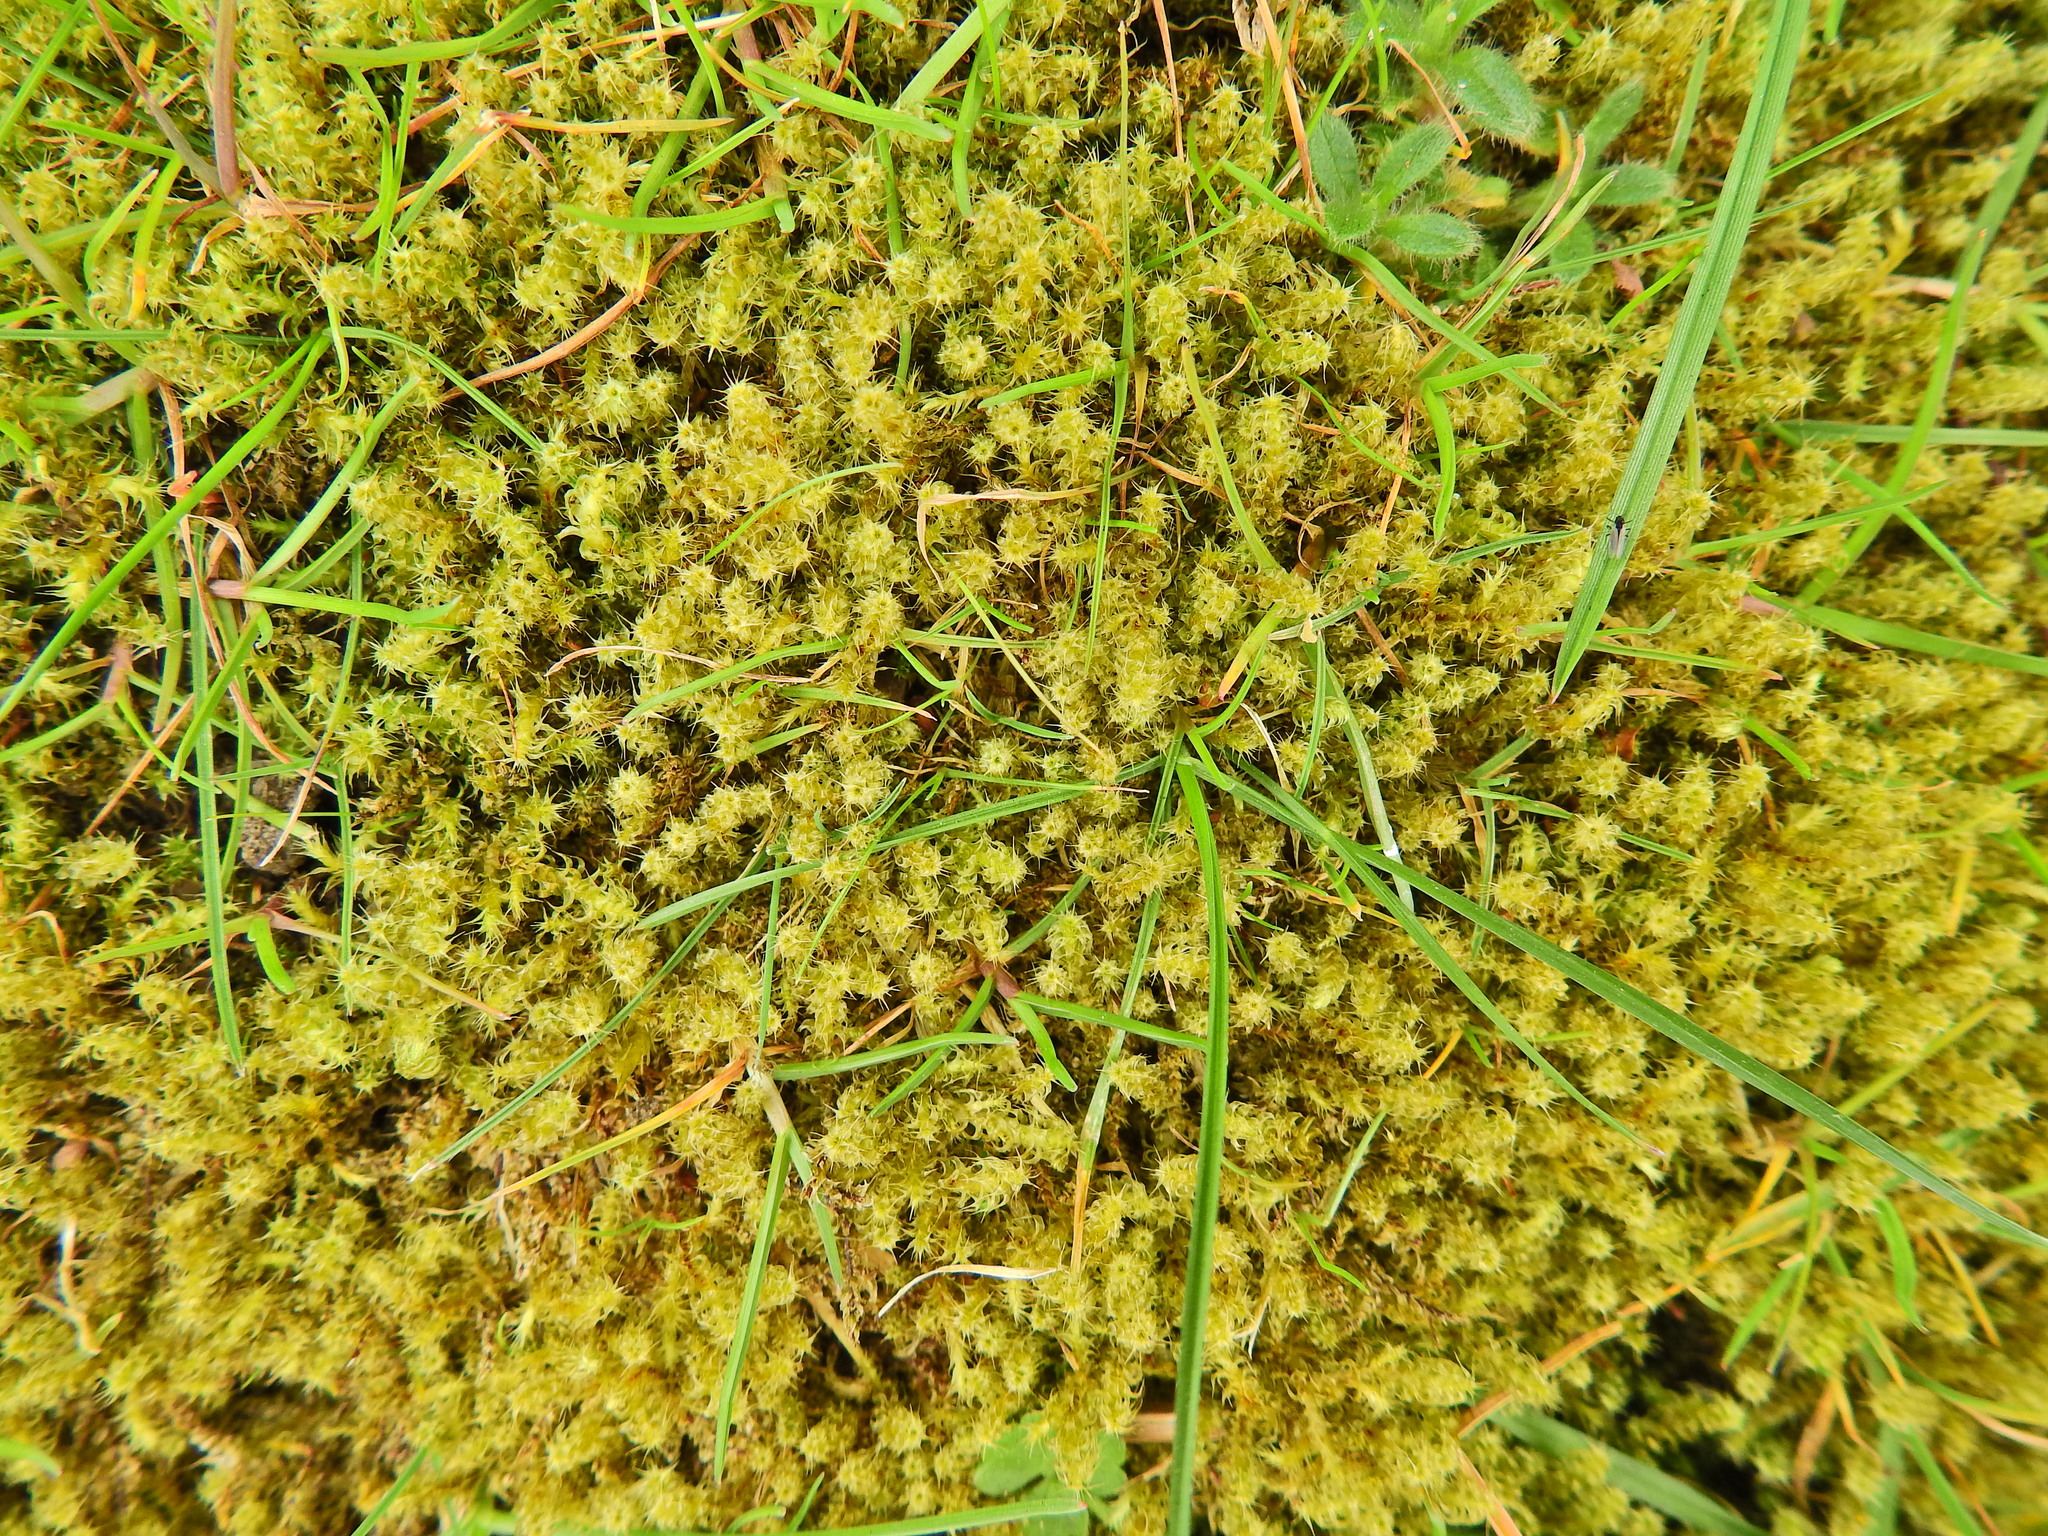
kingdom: Plantae
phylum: Bryophyta
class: Bryopsida
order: Hypnales
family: Hylocomiaceae
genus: Rhytidiadelphus
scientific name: Rhytidiadelphus squarrosus
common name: Springy turf-moss
